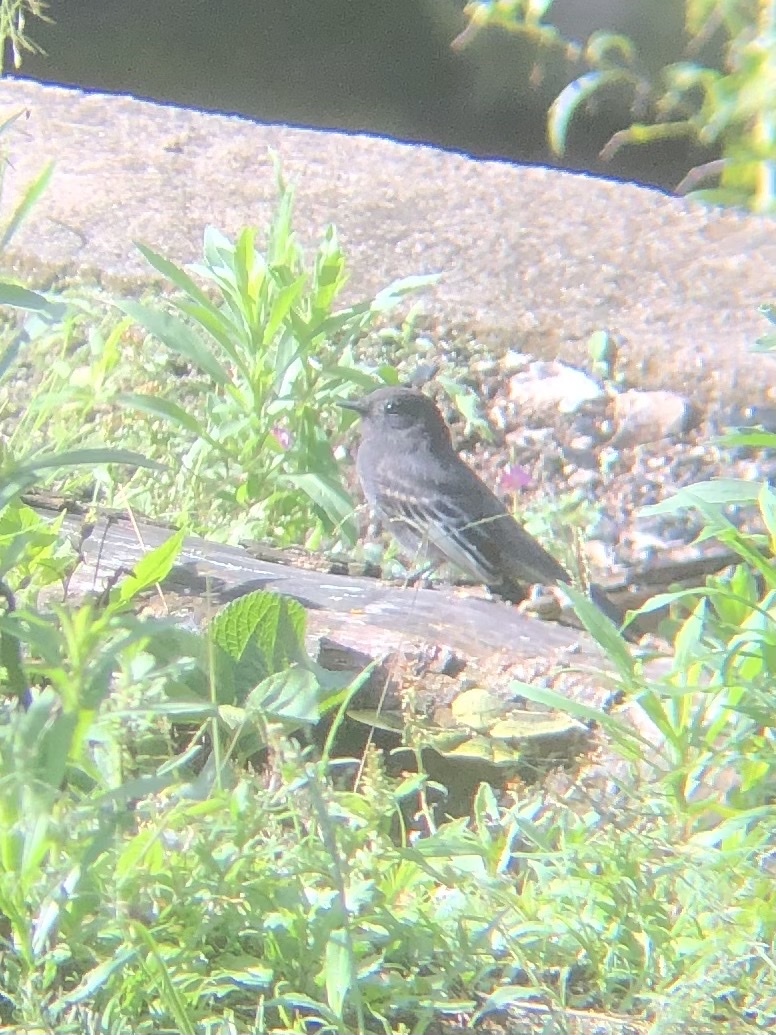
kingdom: Animalia
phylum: Chordata
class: Aves
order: Passeriformes
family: Tyrannidae
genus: Sayornis
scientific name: Sayornis nigricans
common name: Black phoebe
